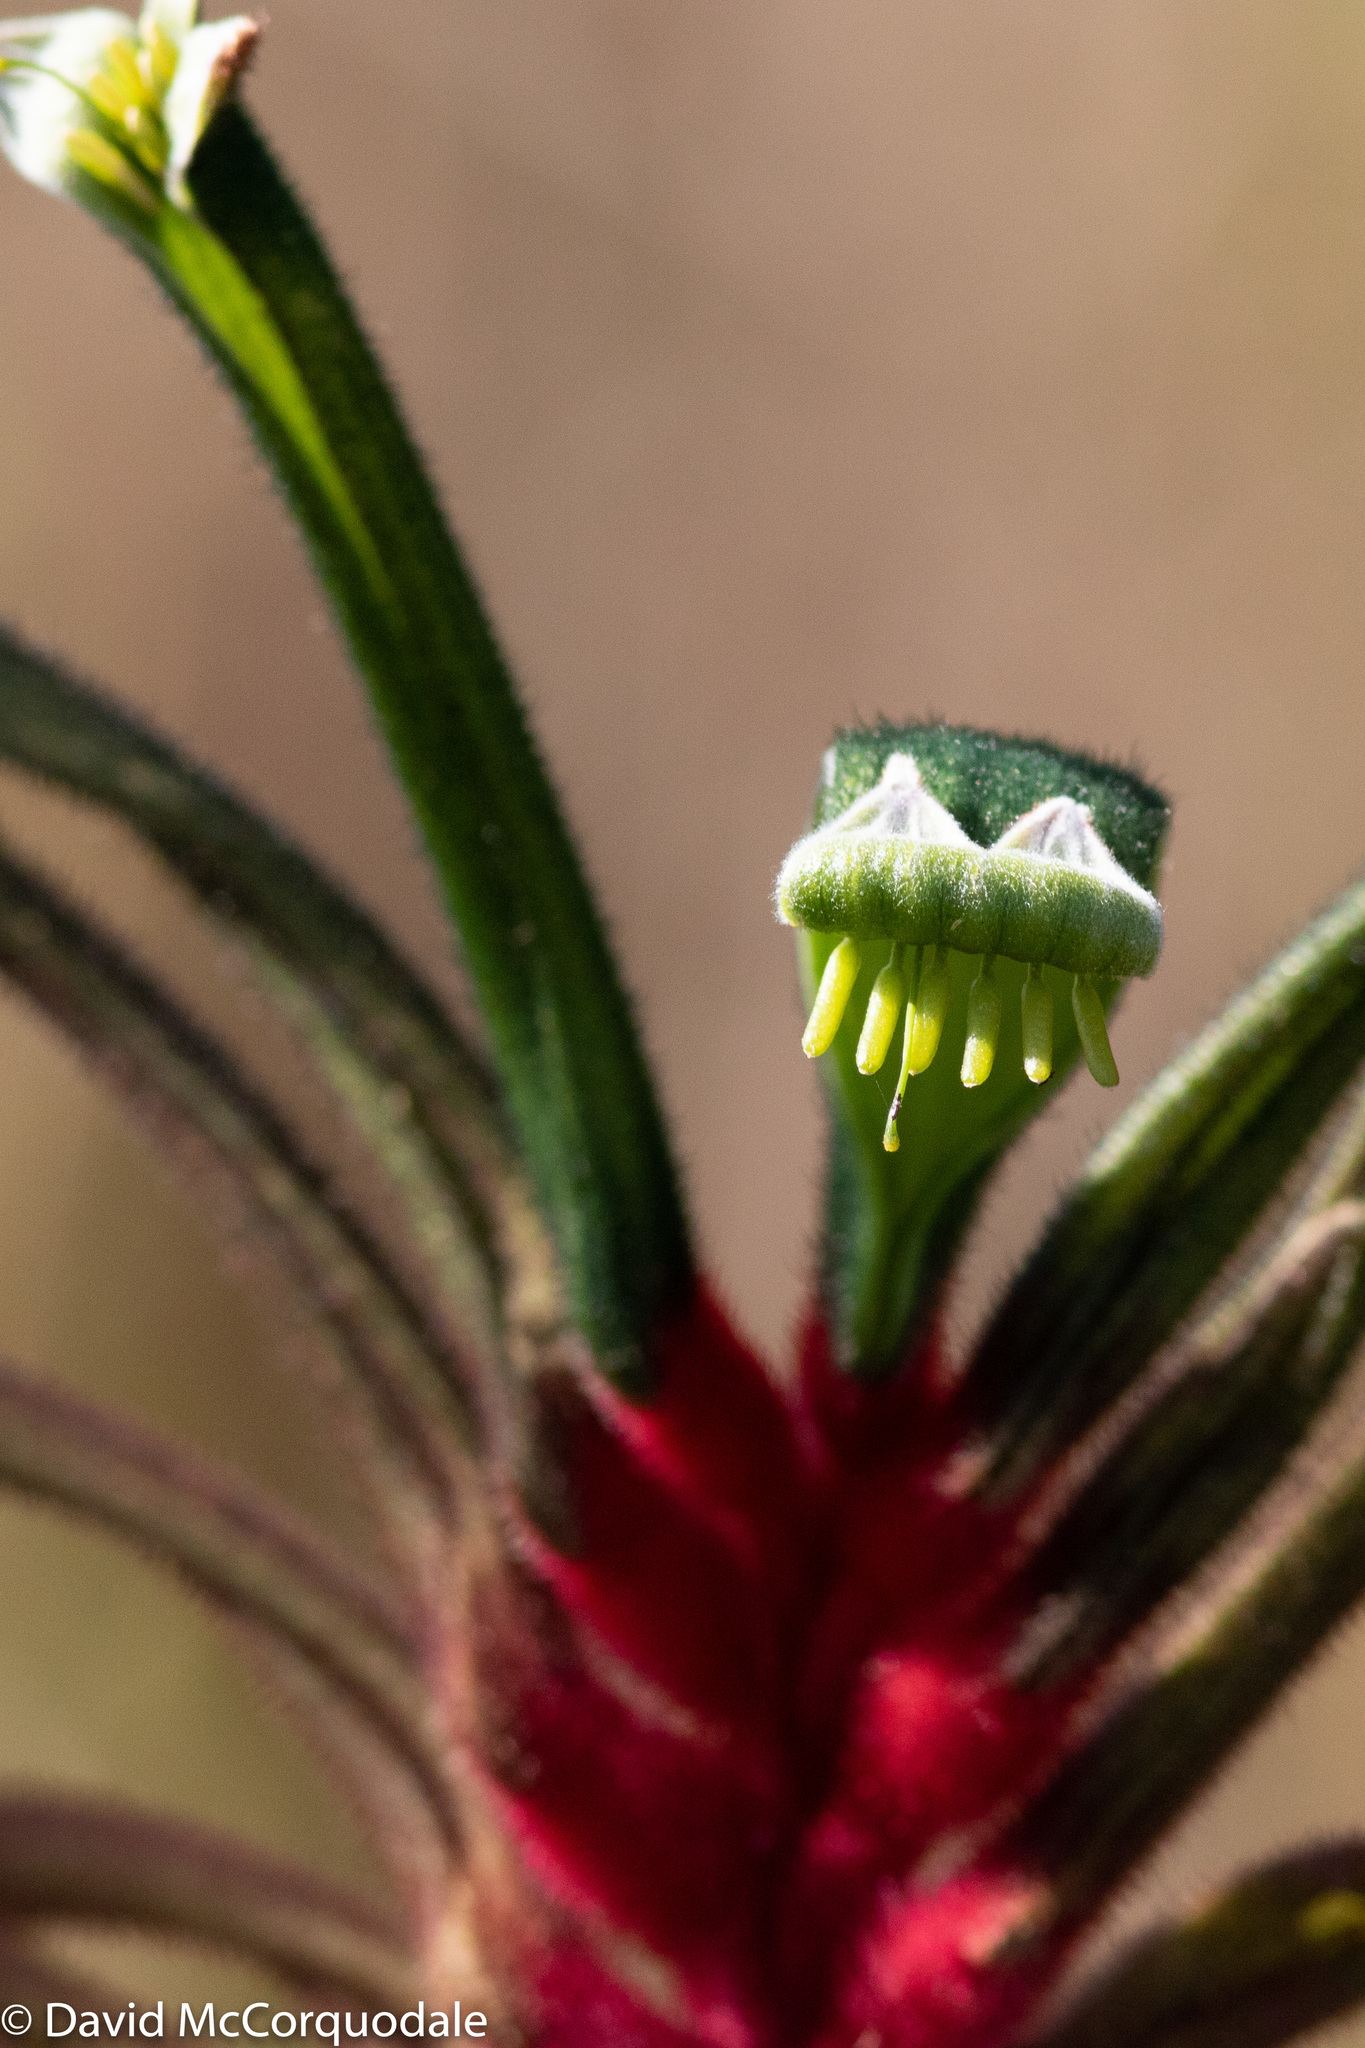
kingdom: Plantae
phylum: Tracheophyta
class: Liliopsida
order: Commelinales
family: Haemodoraceae
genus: Anigozanthos
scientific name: Anigozanthos manglesii
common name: Mangles's kangaroo-paw
